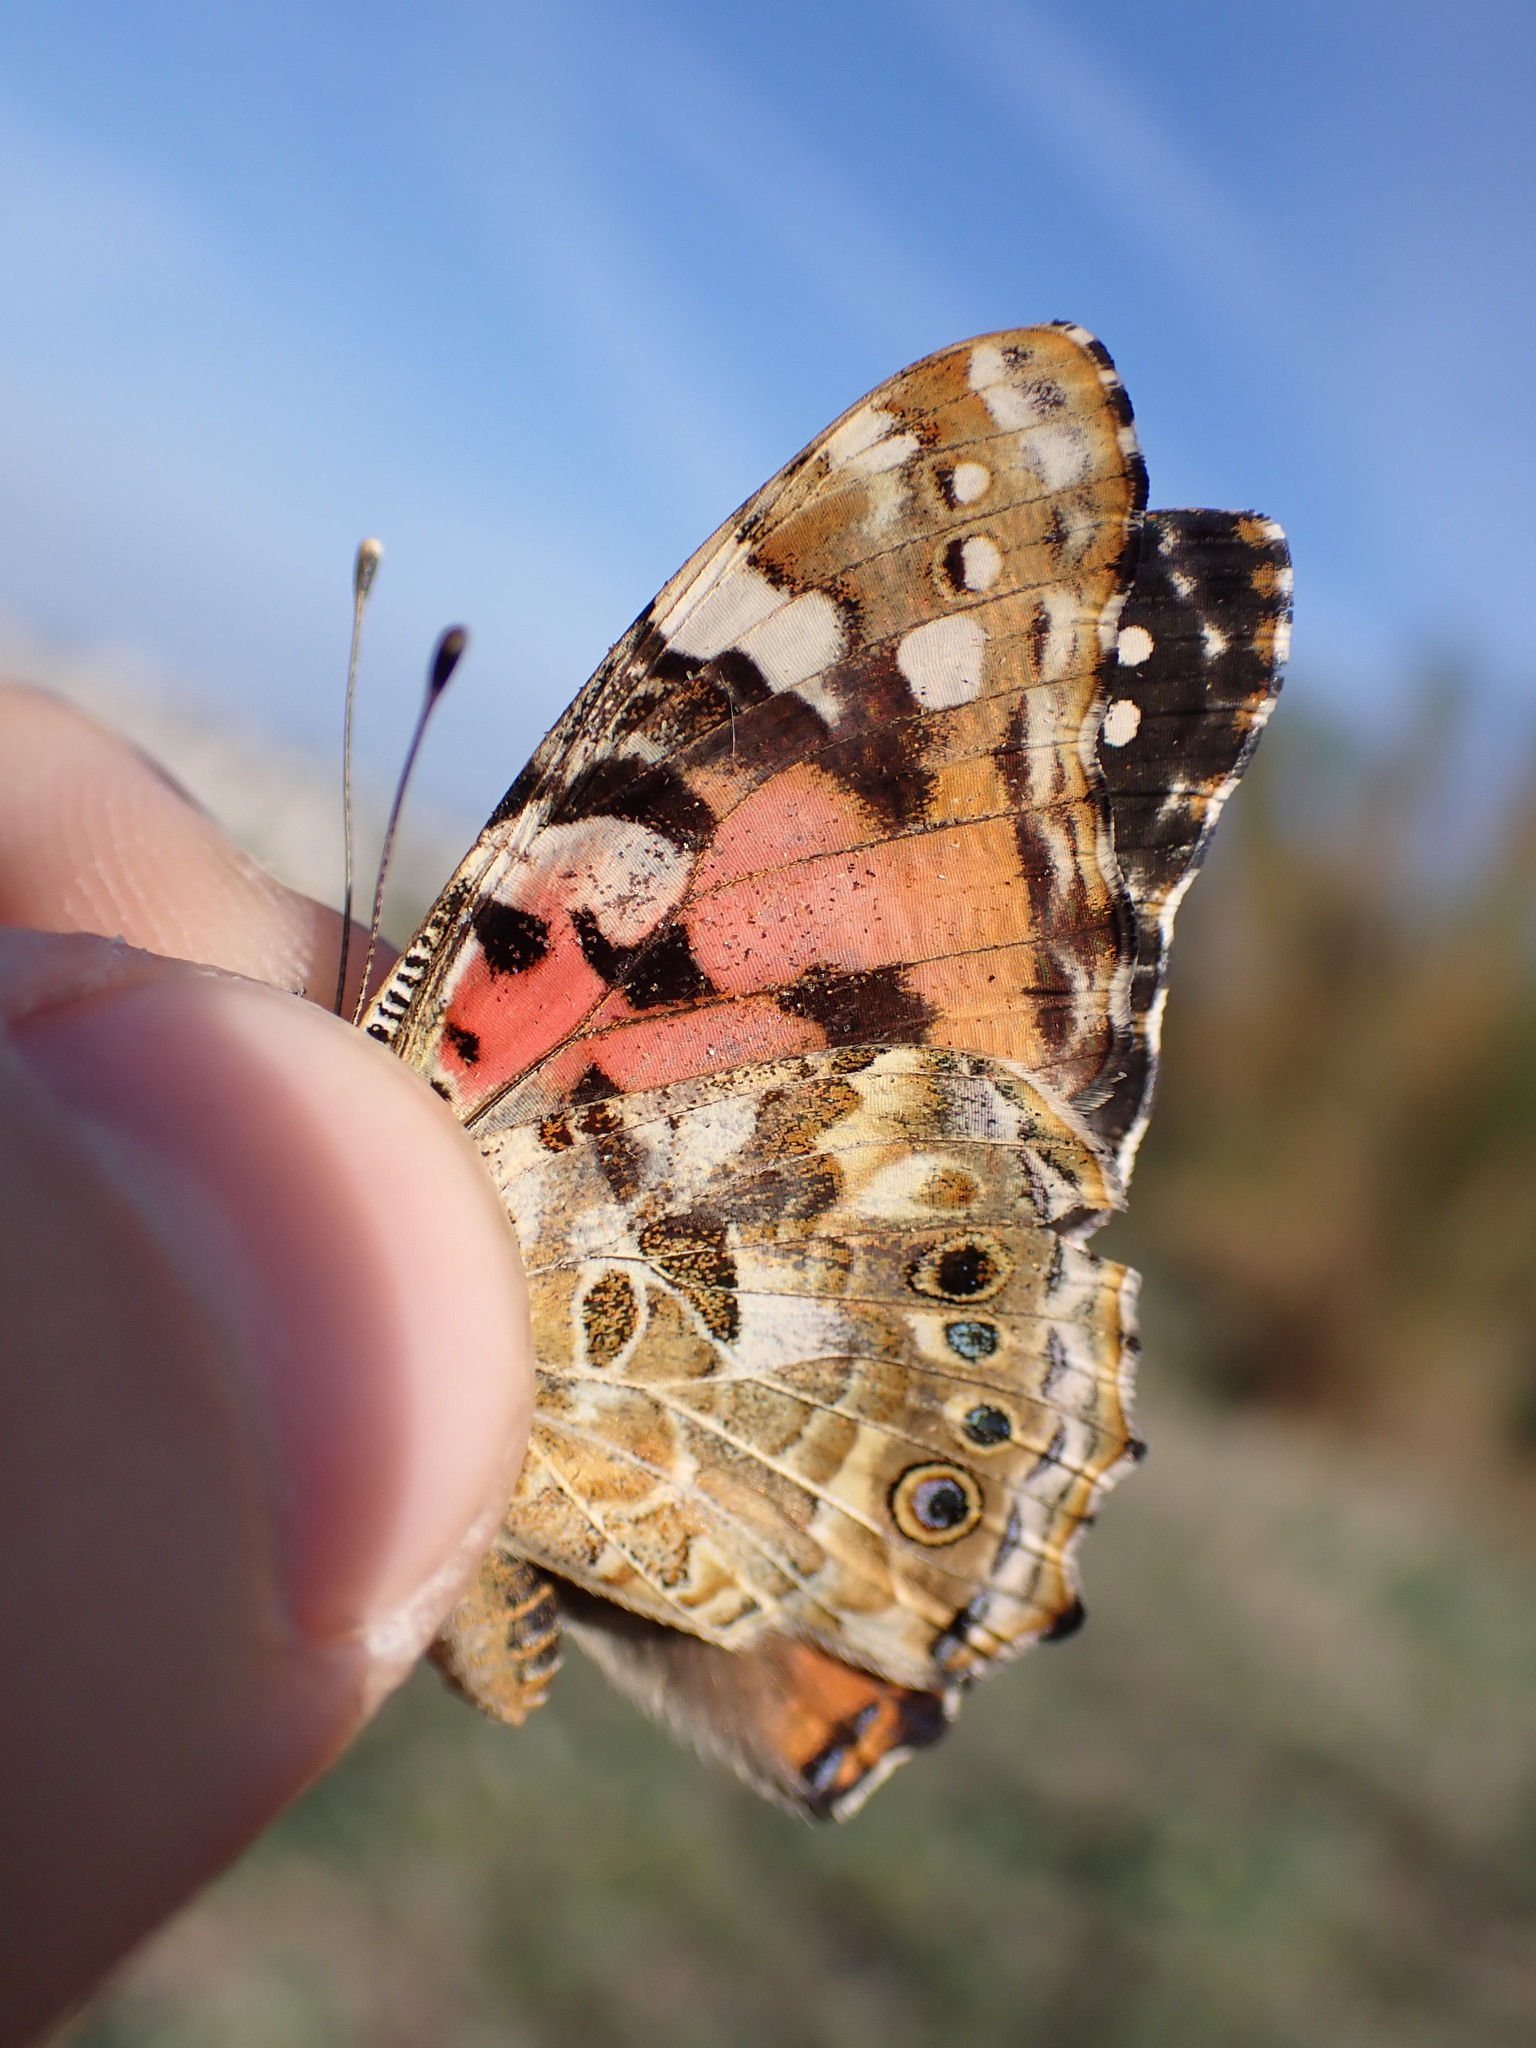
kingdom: Animalia
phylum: Arthropoda
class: Insecta
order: Lepidoptera
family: Nymphalidae
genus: Vanessa
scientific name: Vanessa cardui
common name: Painted lady
